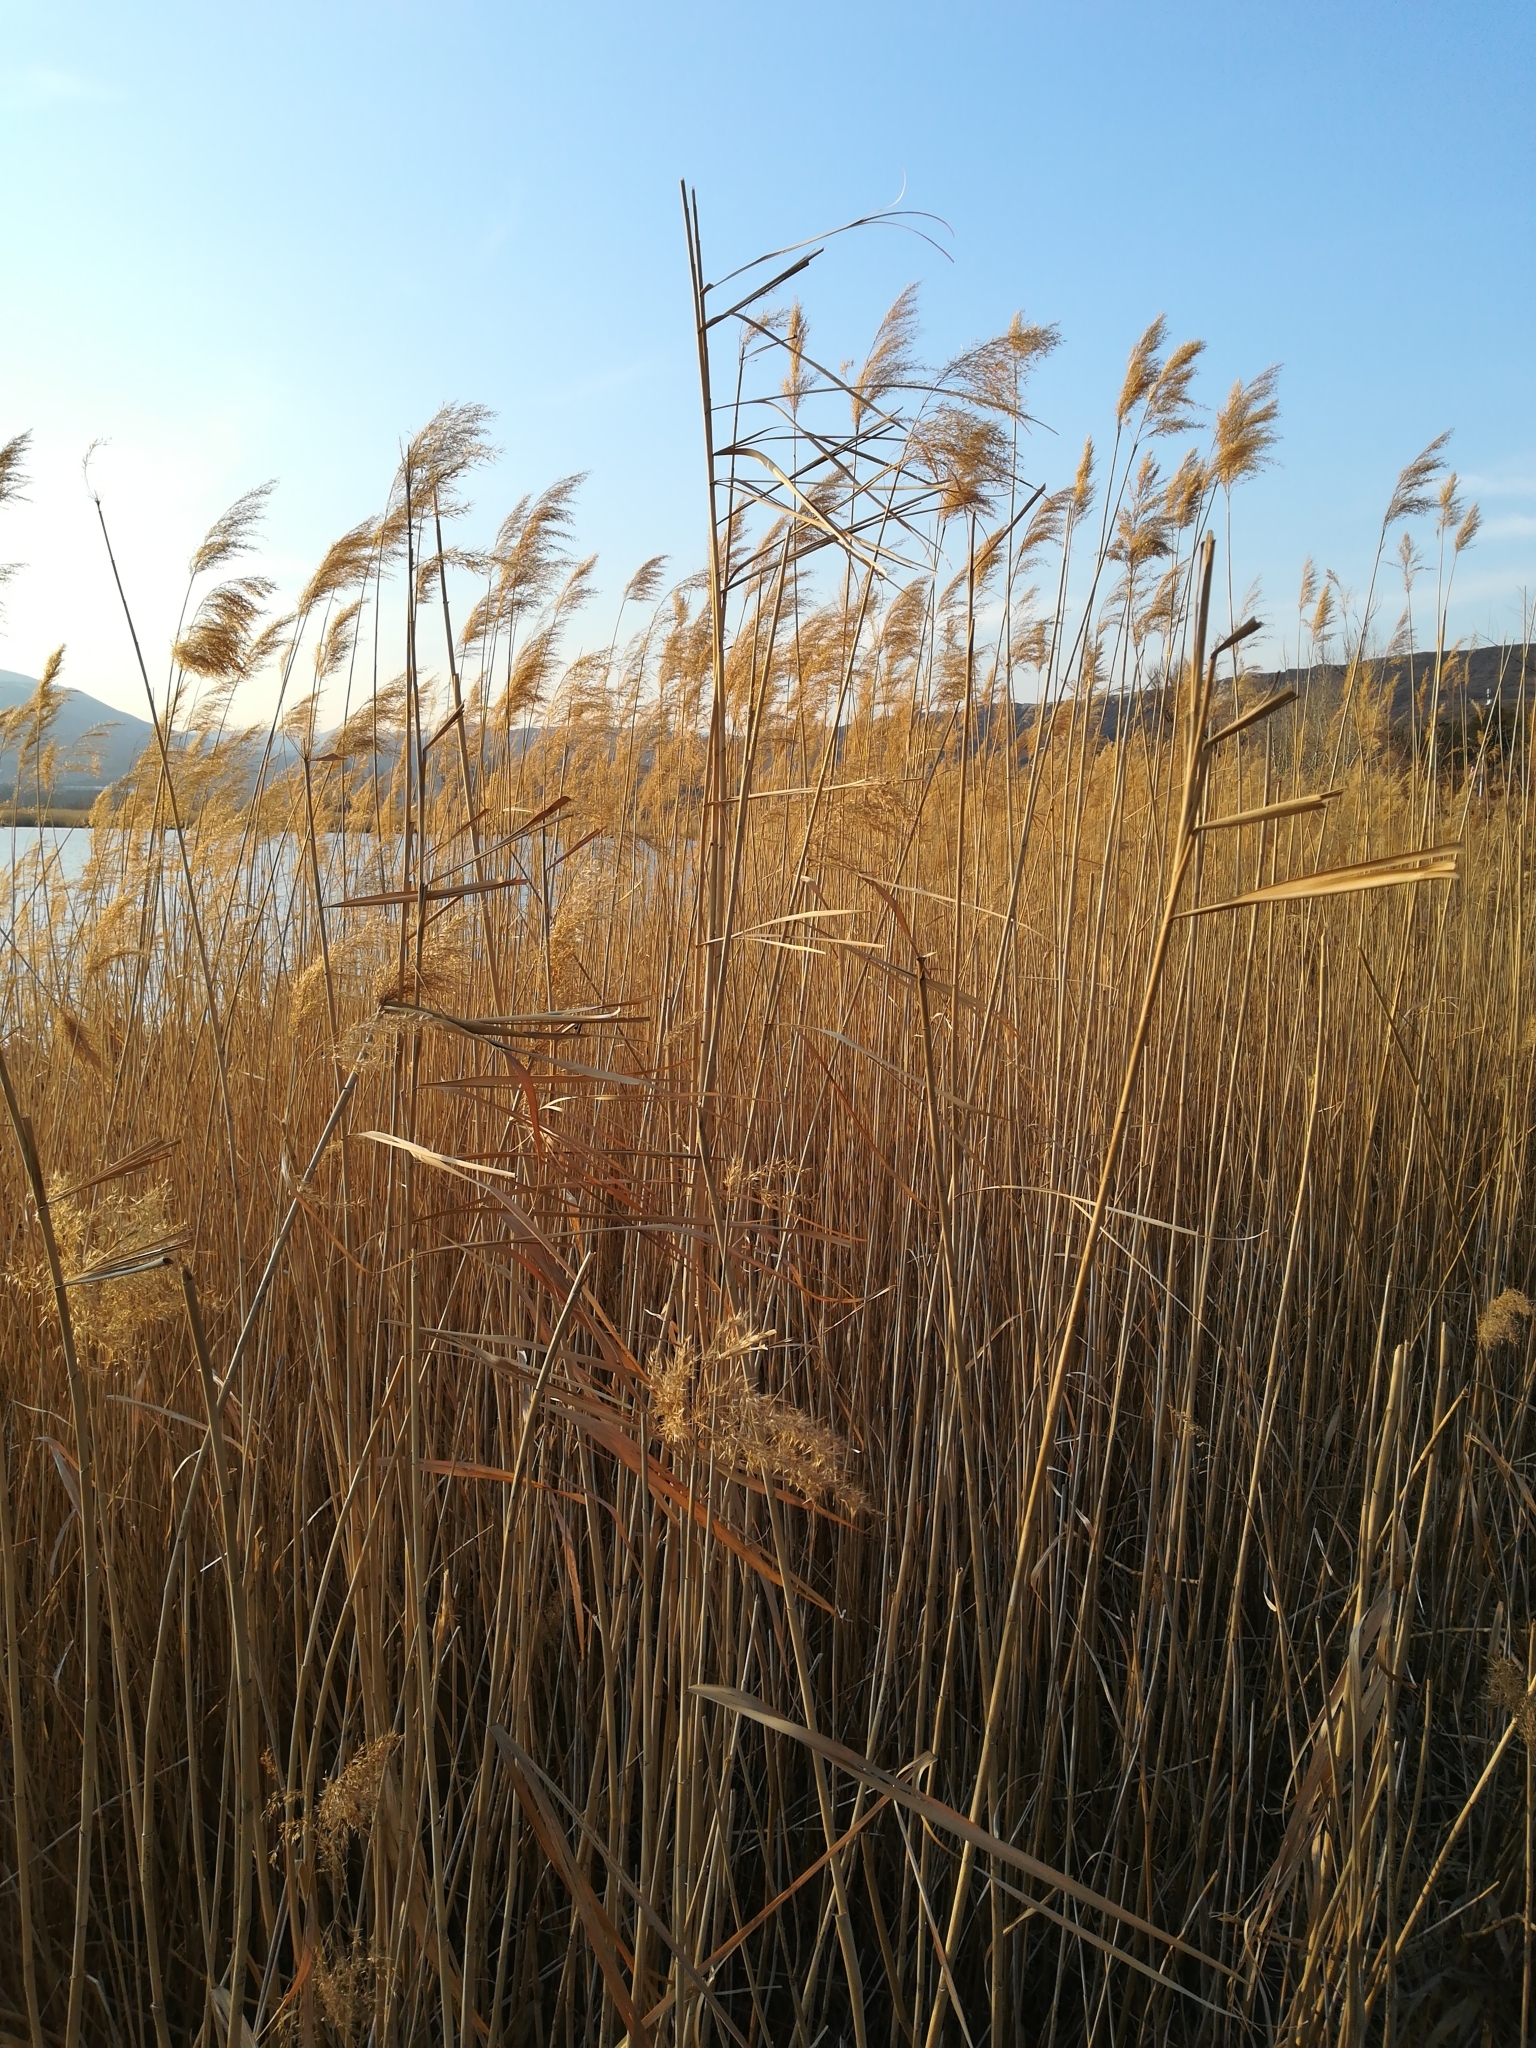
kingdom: Plantae
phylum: Tracheophyta
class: Liliopsida
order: Poales
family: Poaceae
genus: Phragmites
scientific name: Phragmites australis
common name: Common reed
